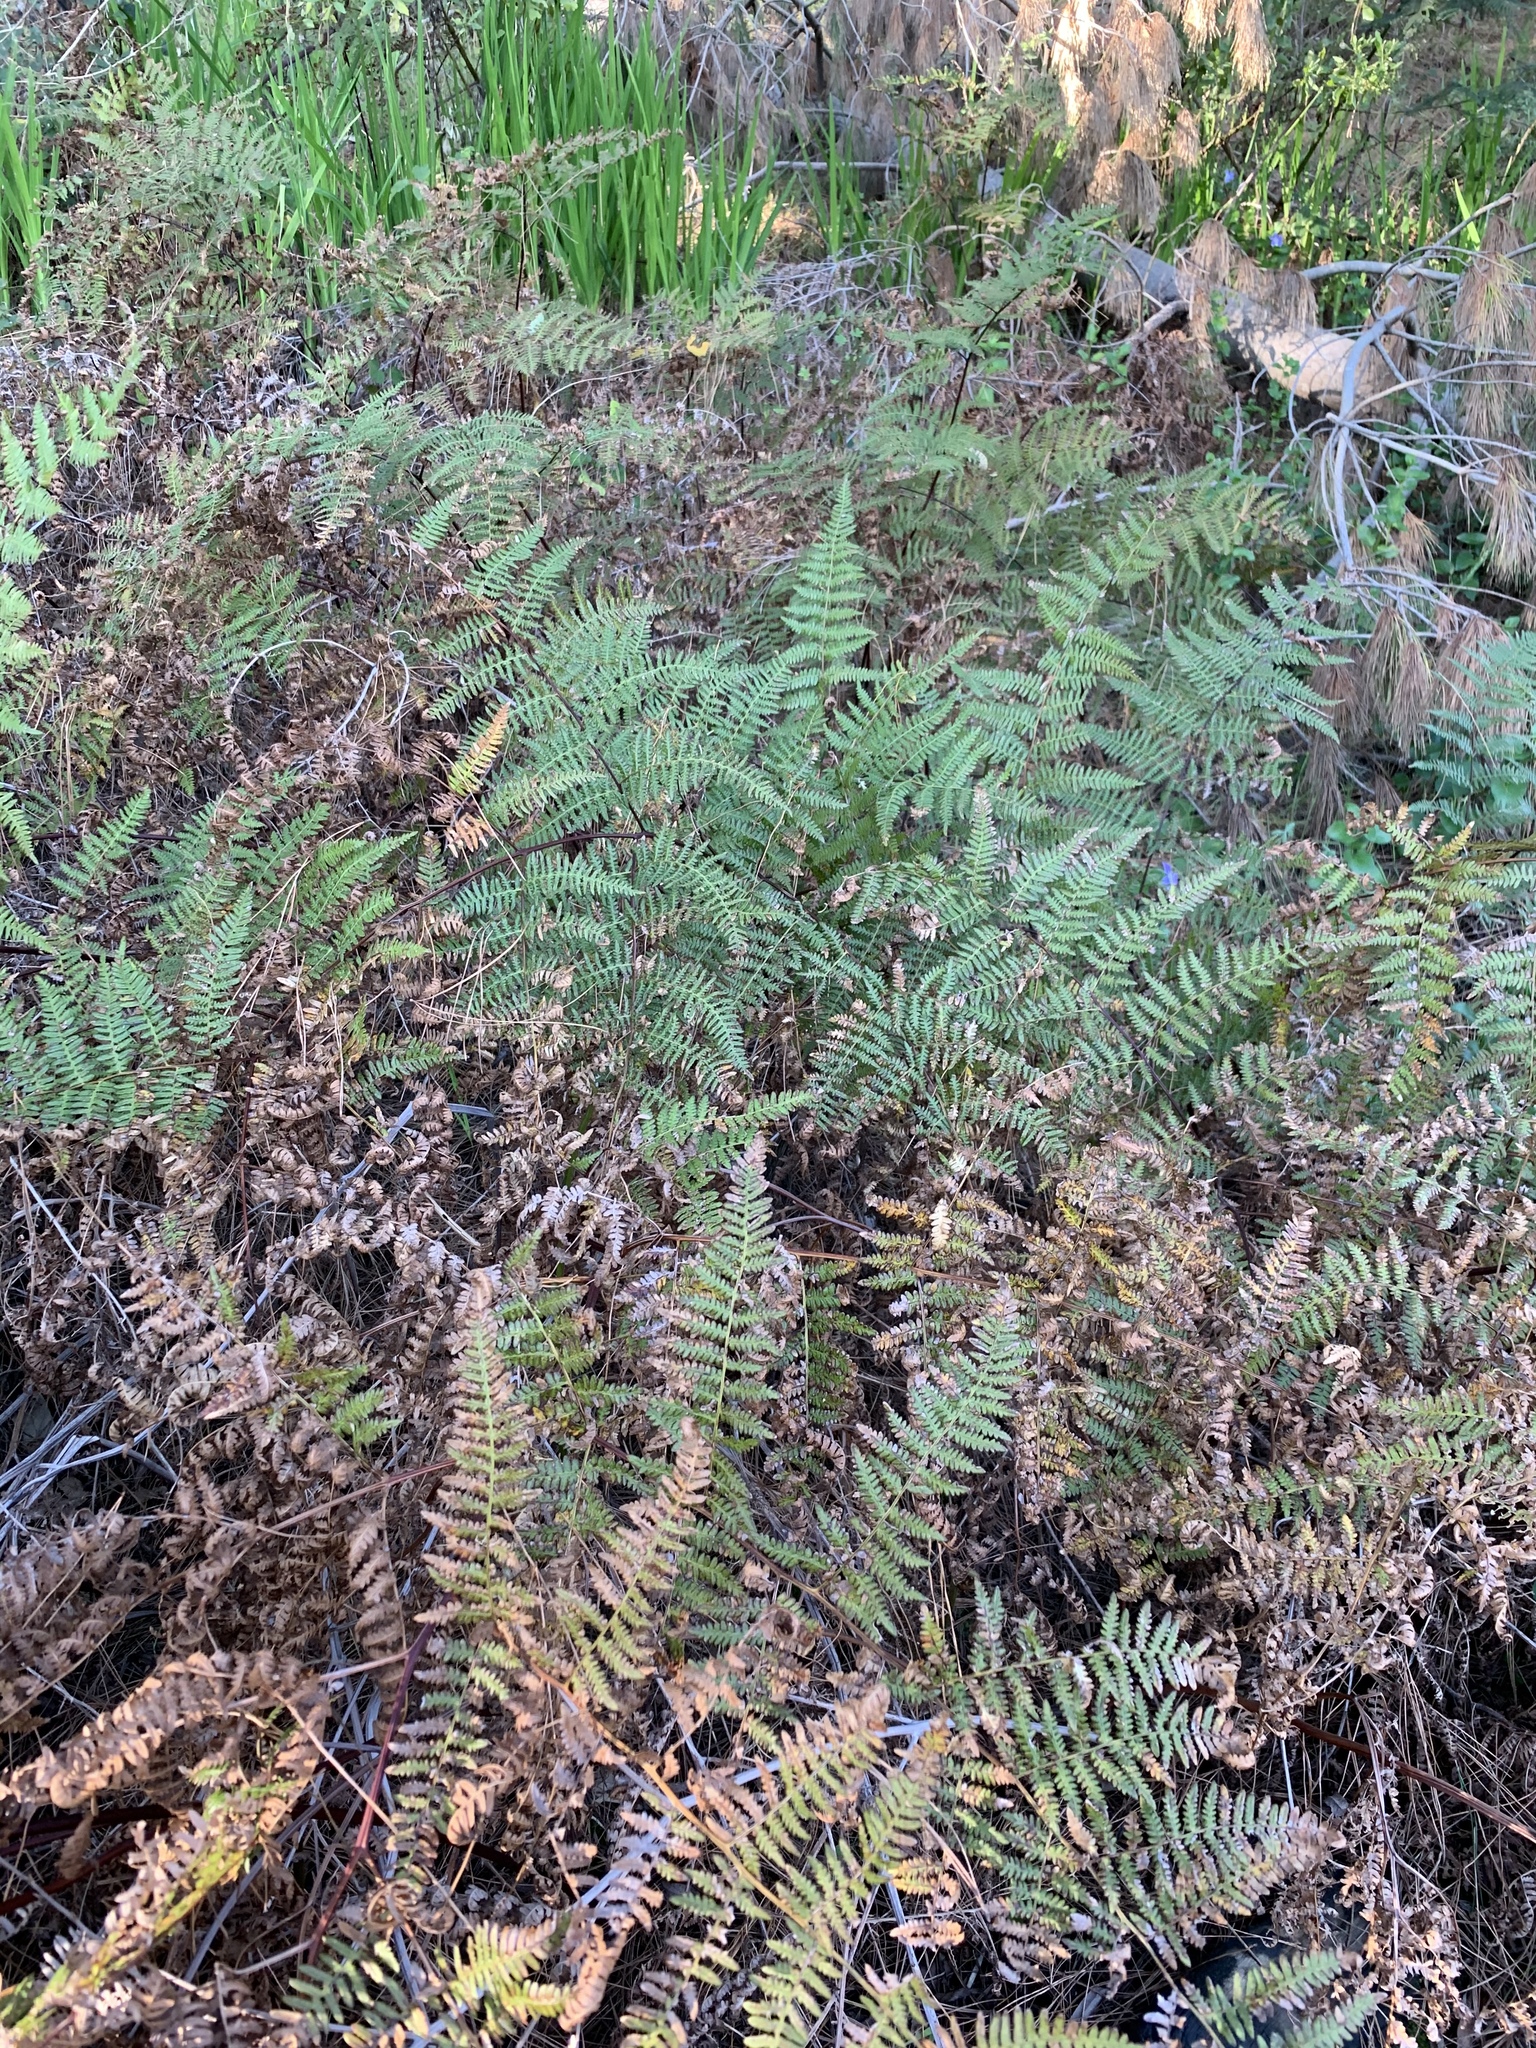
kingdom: Plantae
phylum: Tracheophyta
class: Polypodiopsida
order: Polypodiales
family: Dennstaedtiaceae
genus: Pteridium
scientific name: Pteridium aquilinum
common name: Bracken
